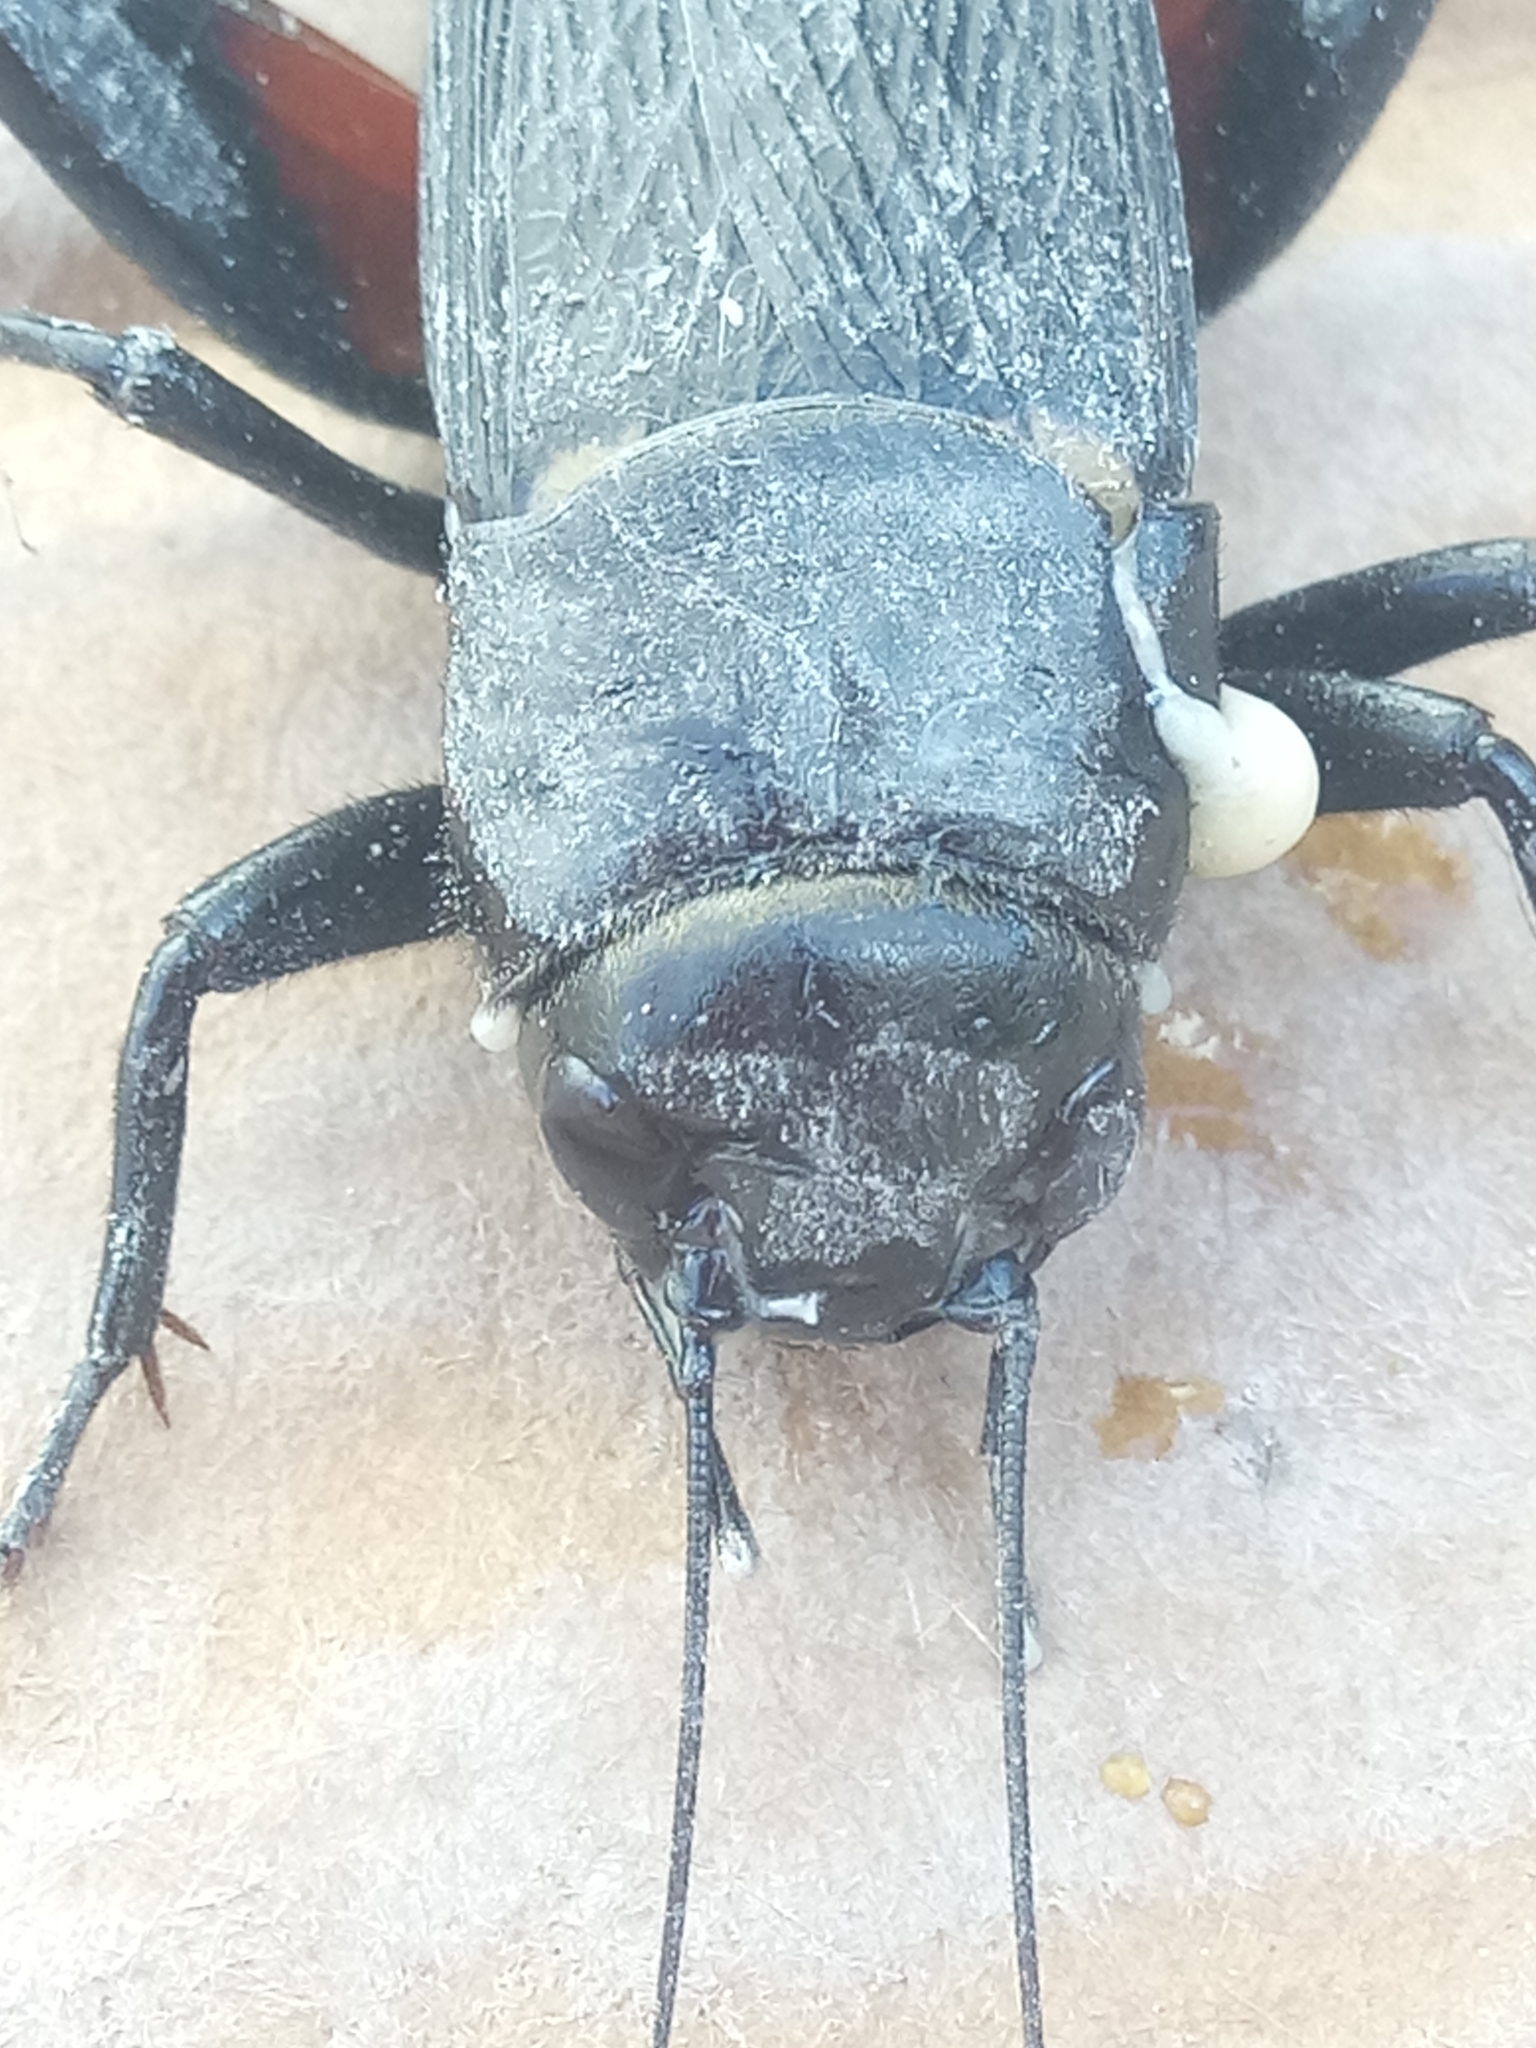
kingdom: Animalia
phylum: Arthropoda
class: Insecta
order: Orthoptera
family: Gryllidae
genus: Gryllus
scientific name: Gryllus bimaculatus
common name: Two-spotted cricket
